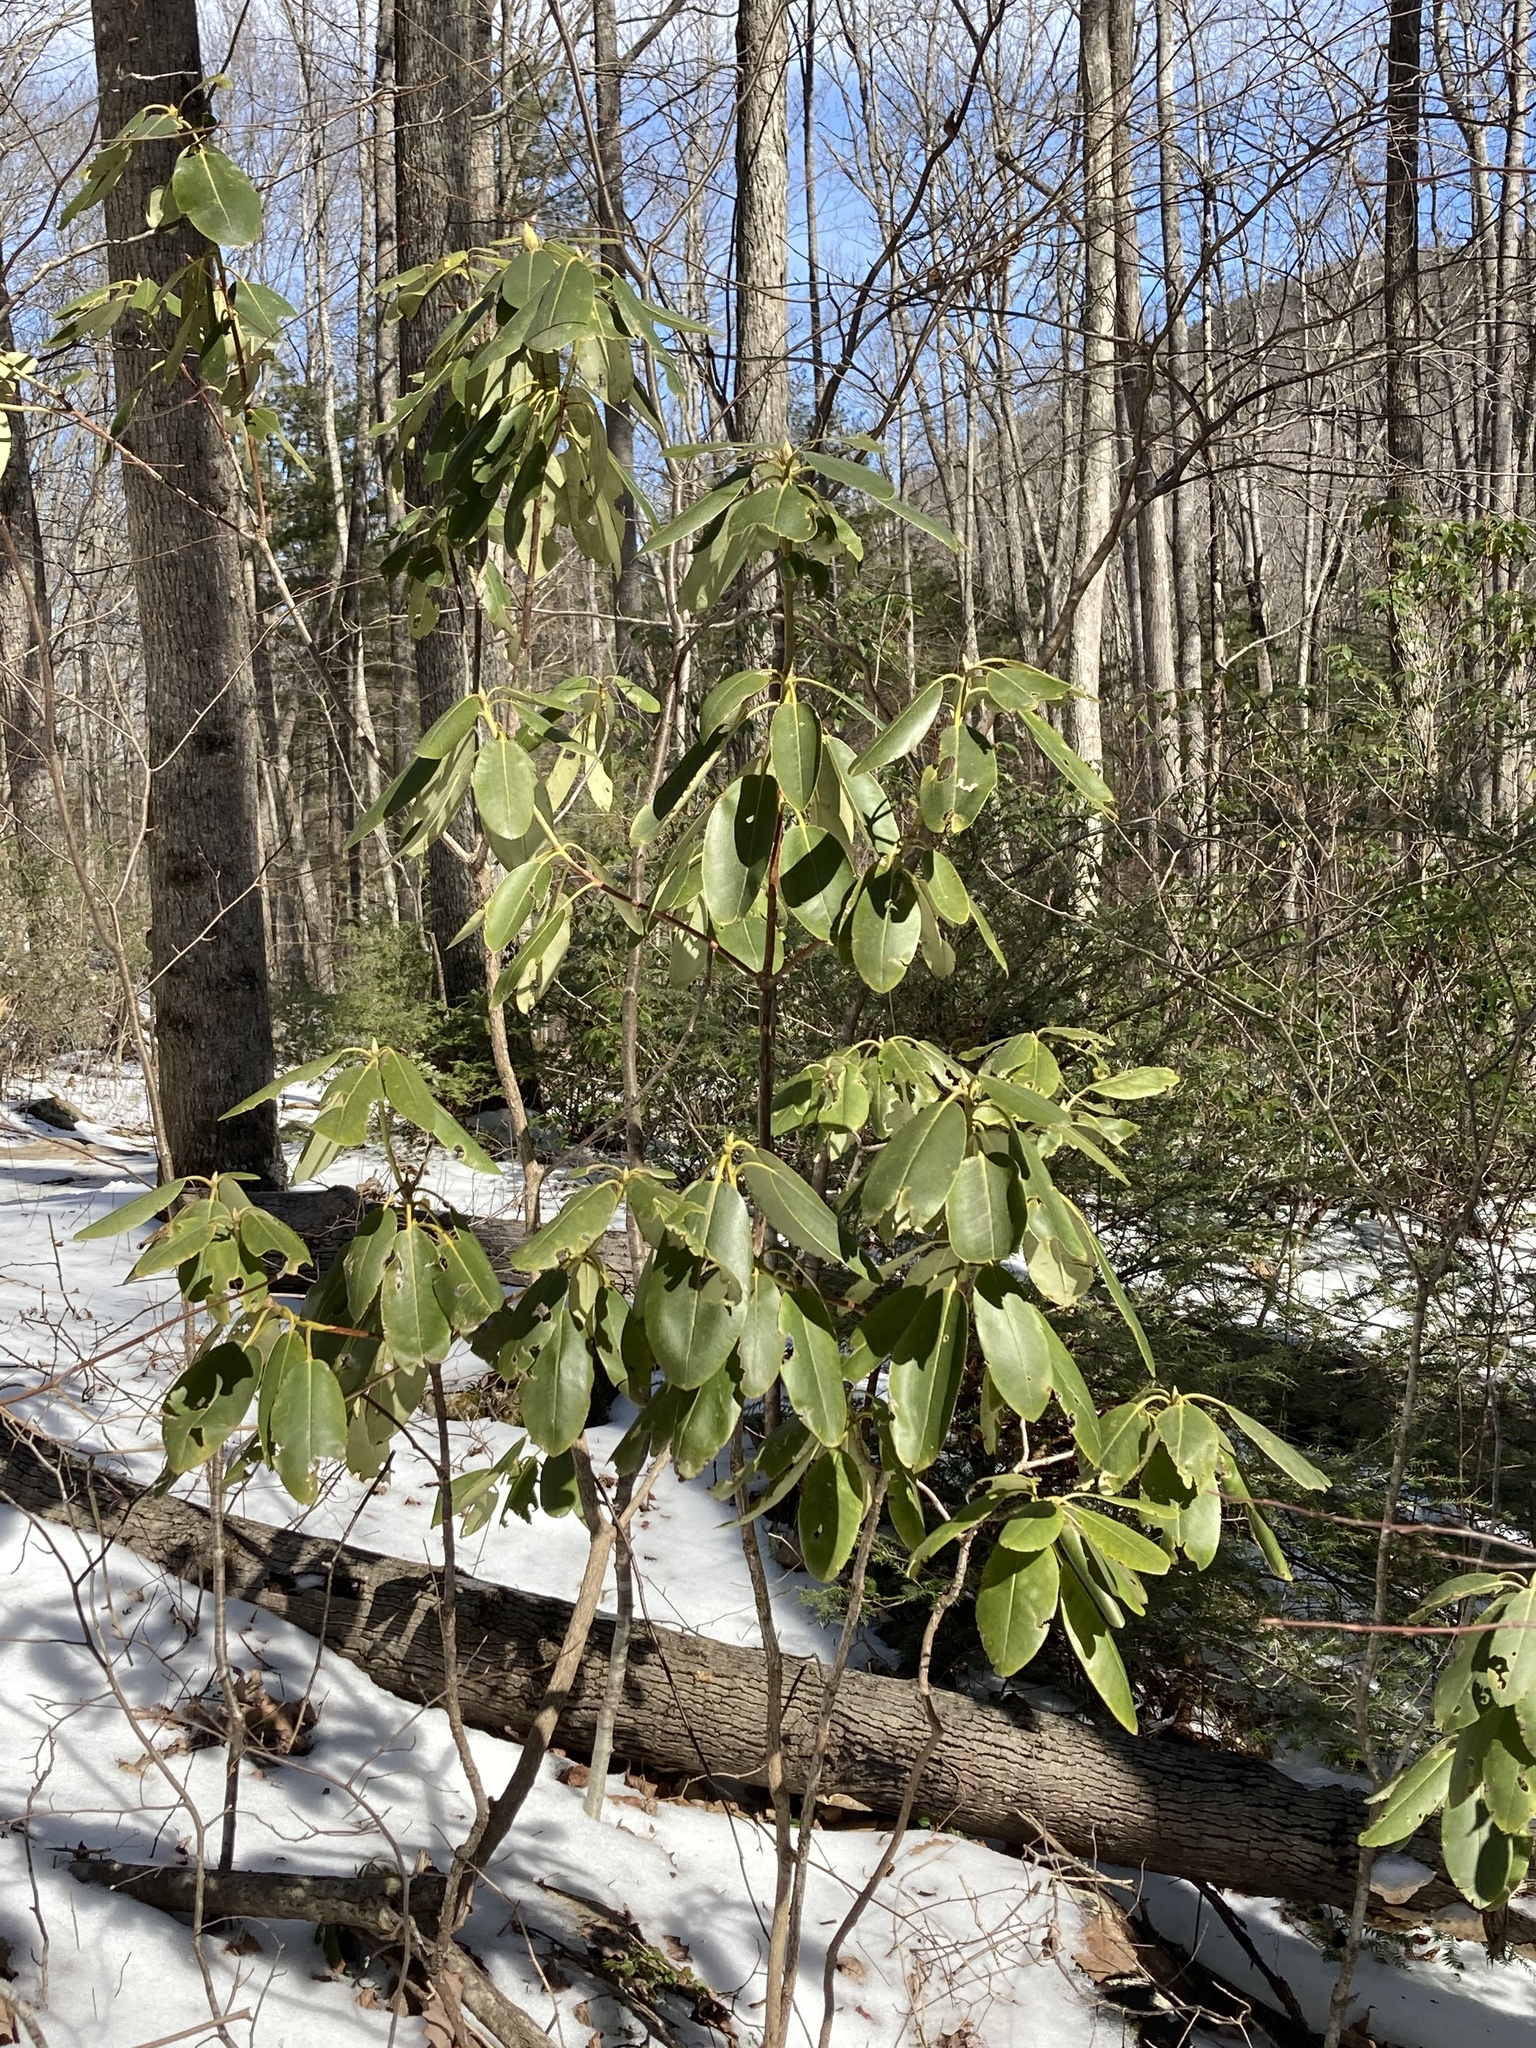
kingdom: Plantae
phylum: Tracheophyta
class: Magnoliopsida
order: Ericales
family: Ericaceae
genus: Rhododendron
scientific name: Rhododendron catawbiense
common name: Catawba rhododendron
